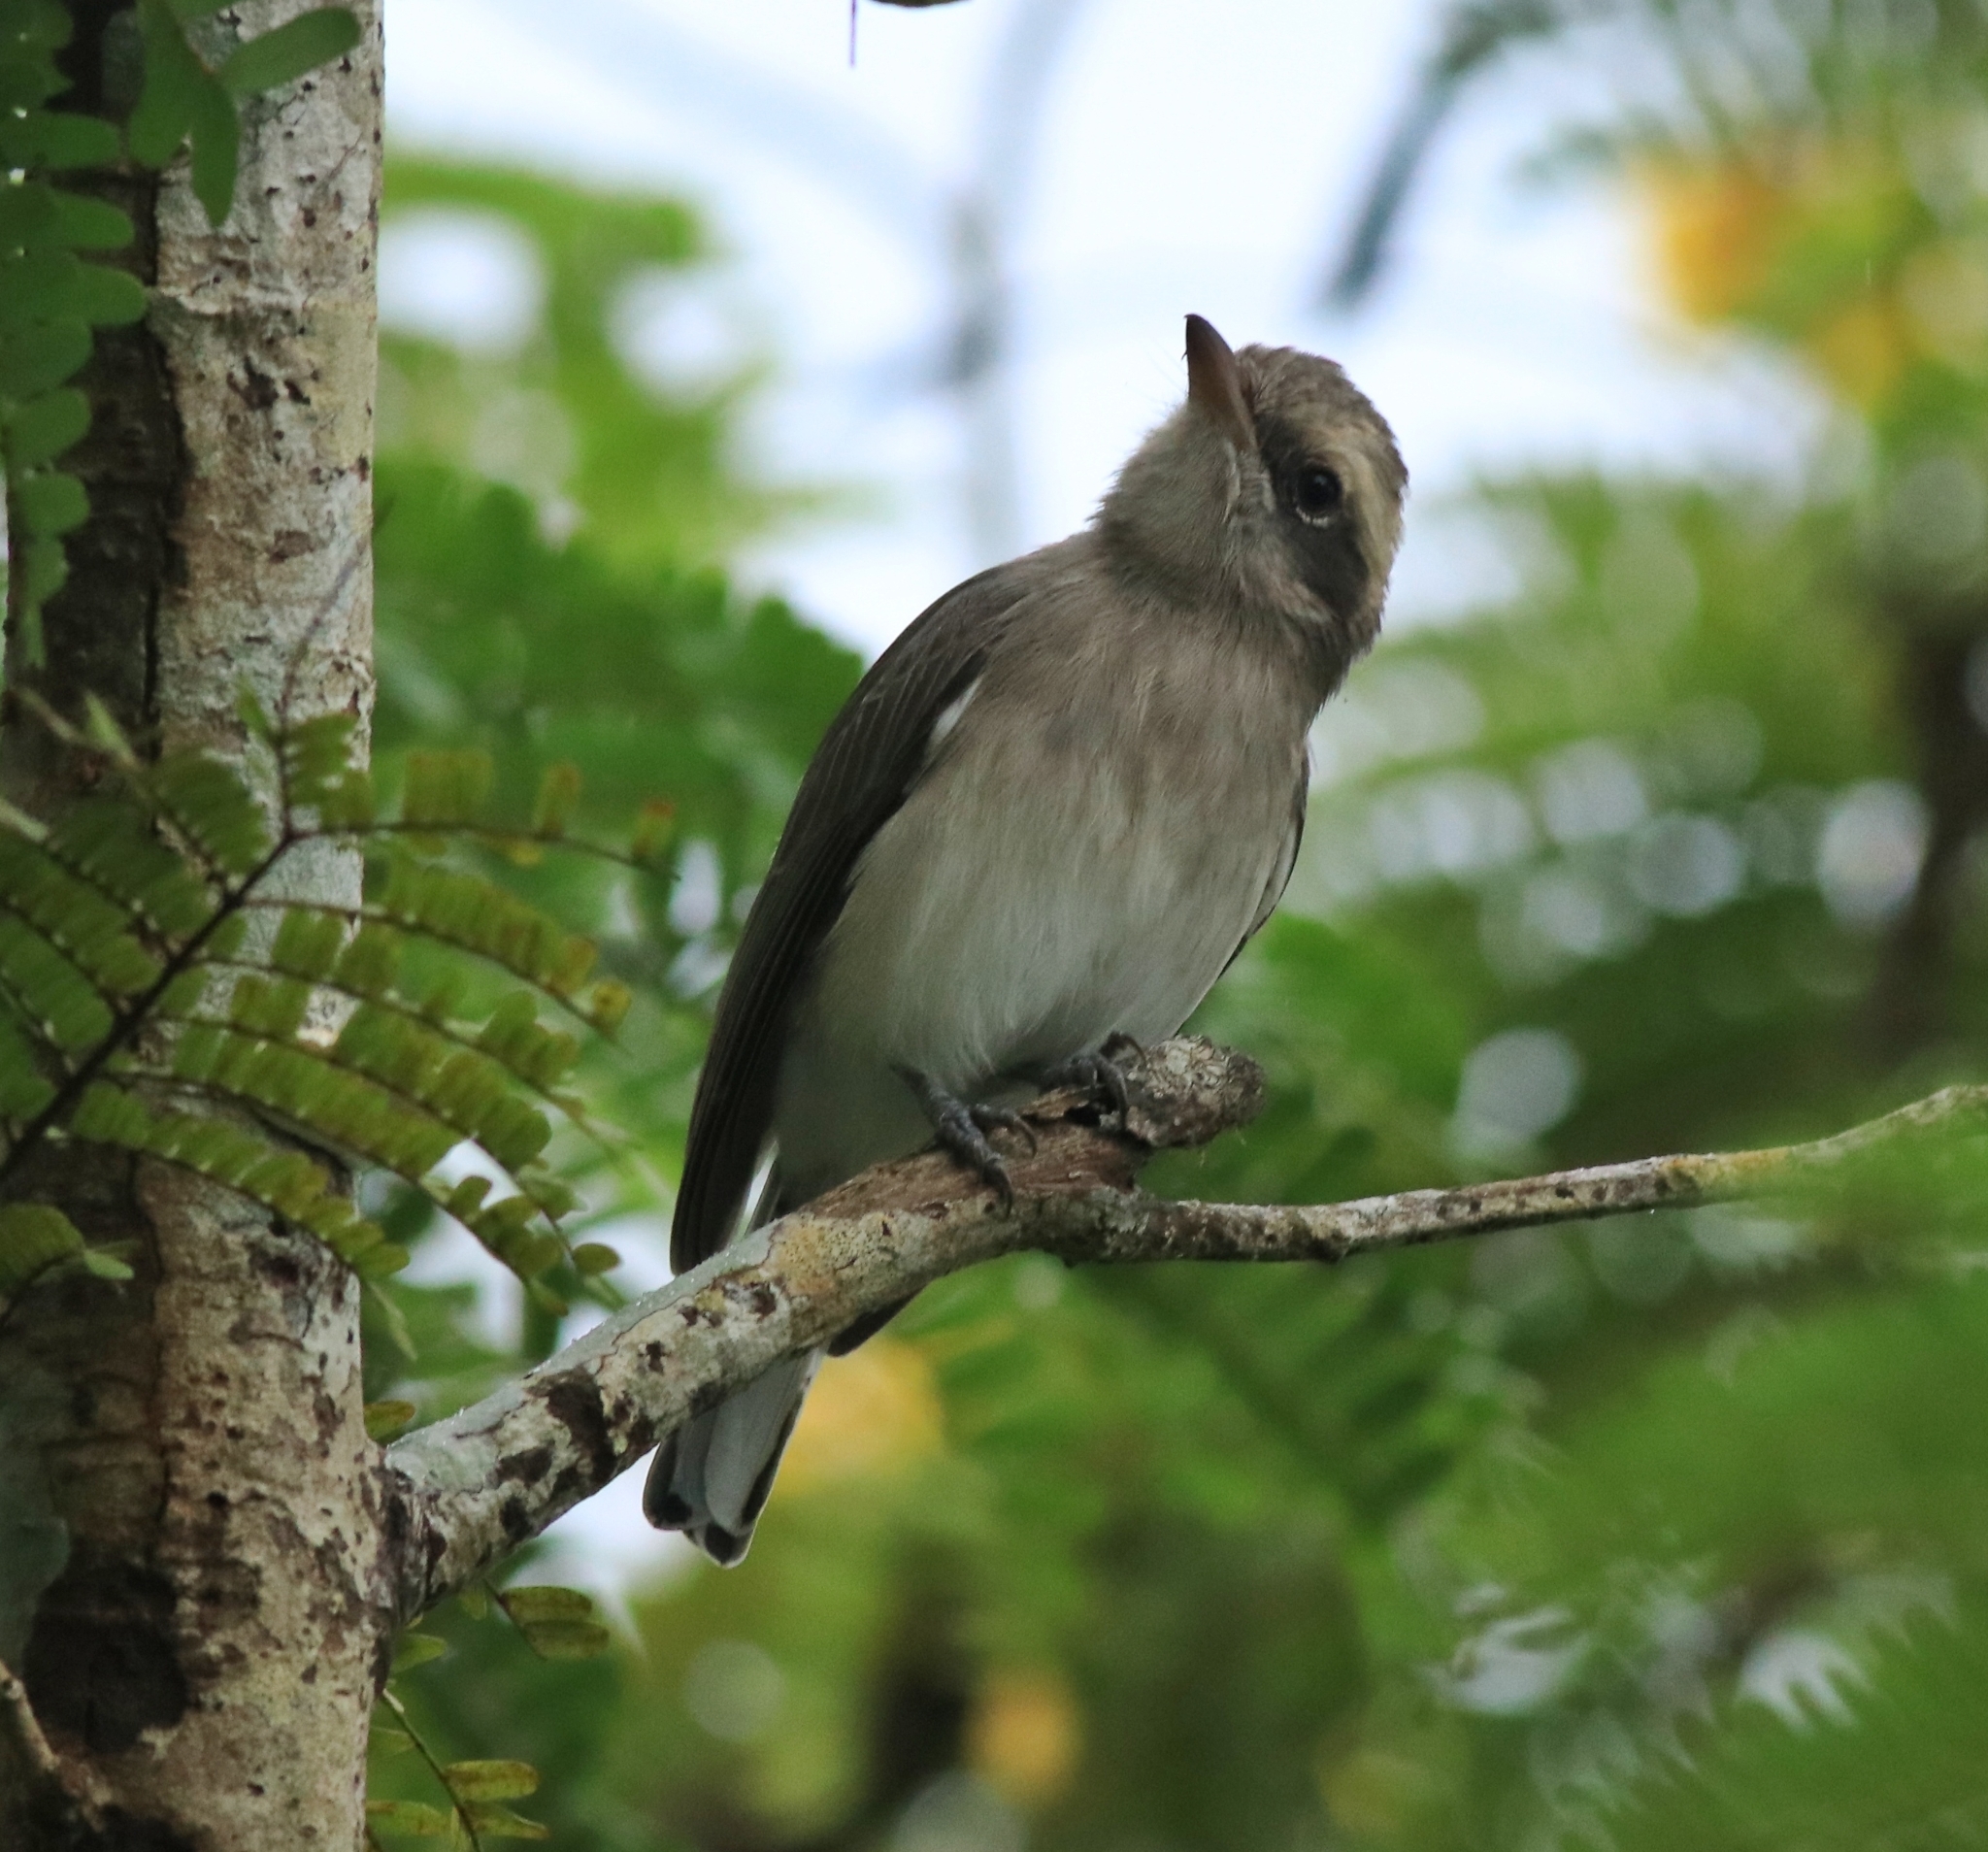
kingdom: Animalia
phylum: Chordata
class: Aves
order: Passeriformes
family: Tephrodornithidae
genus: Tephrodornis
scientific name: Tephrodornis pondicerianus
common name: Common woodshrike
